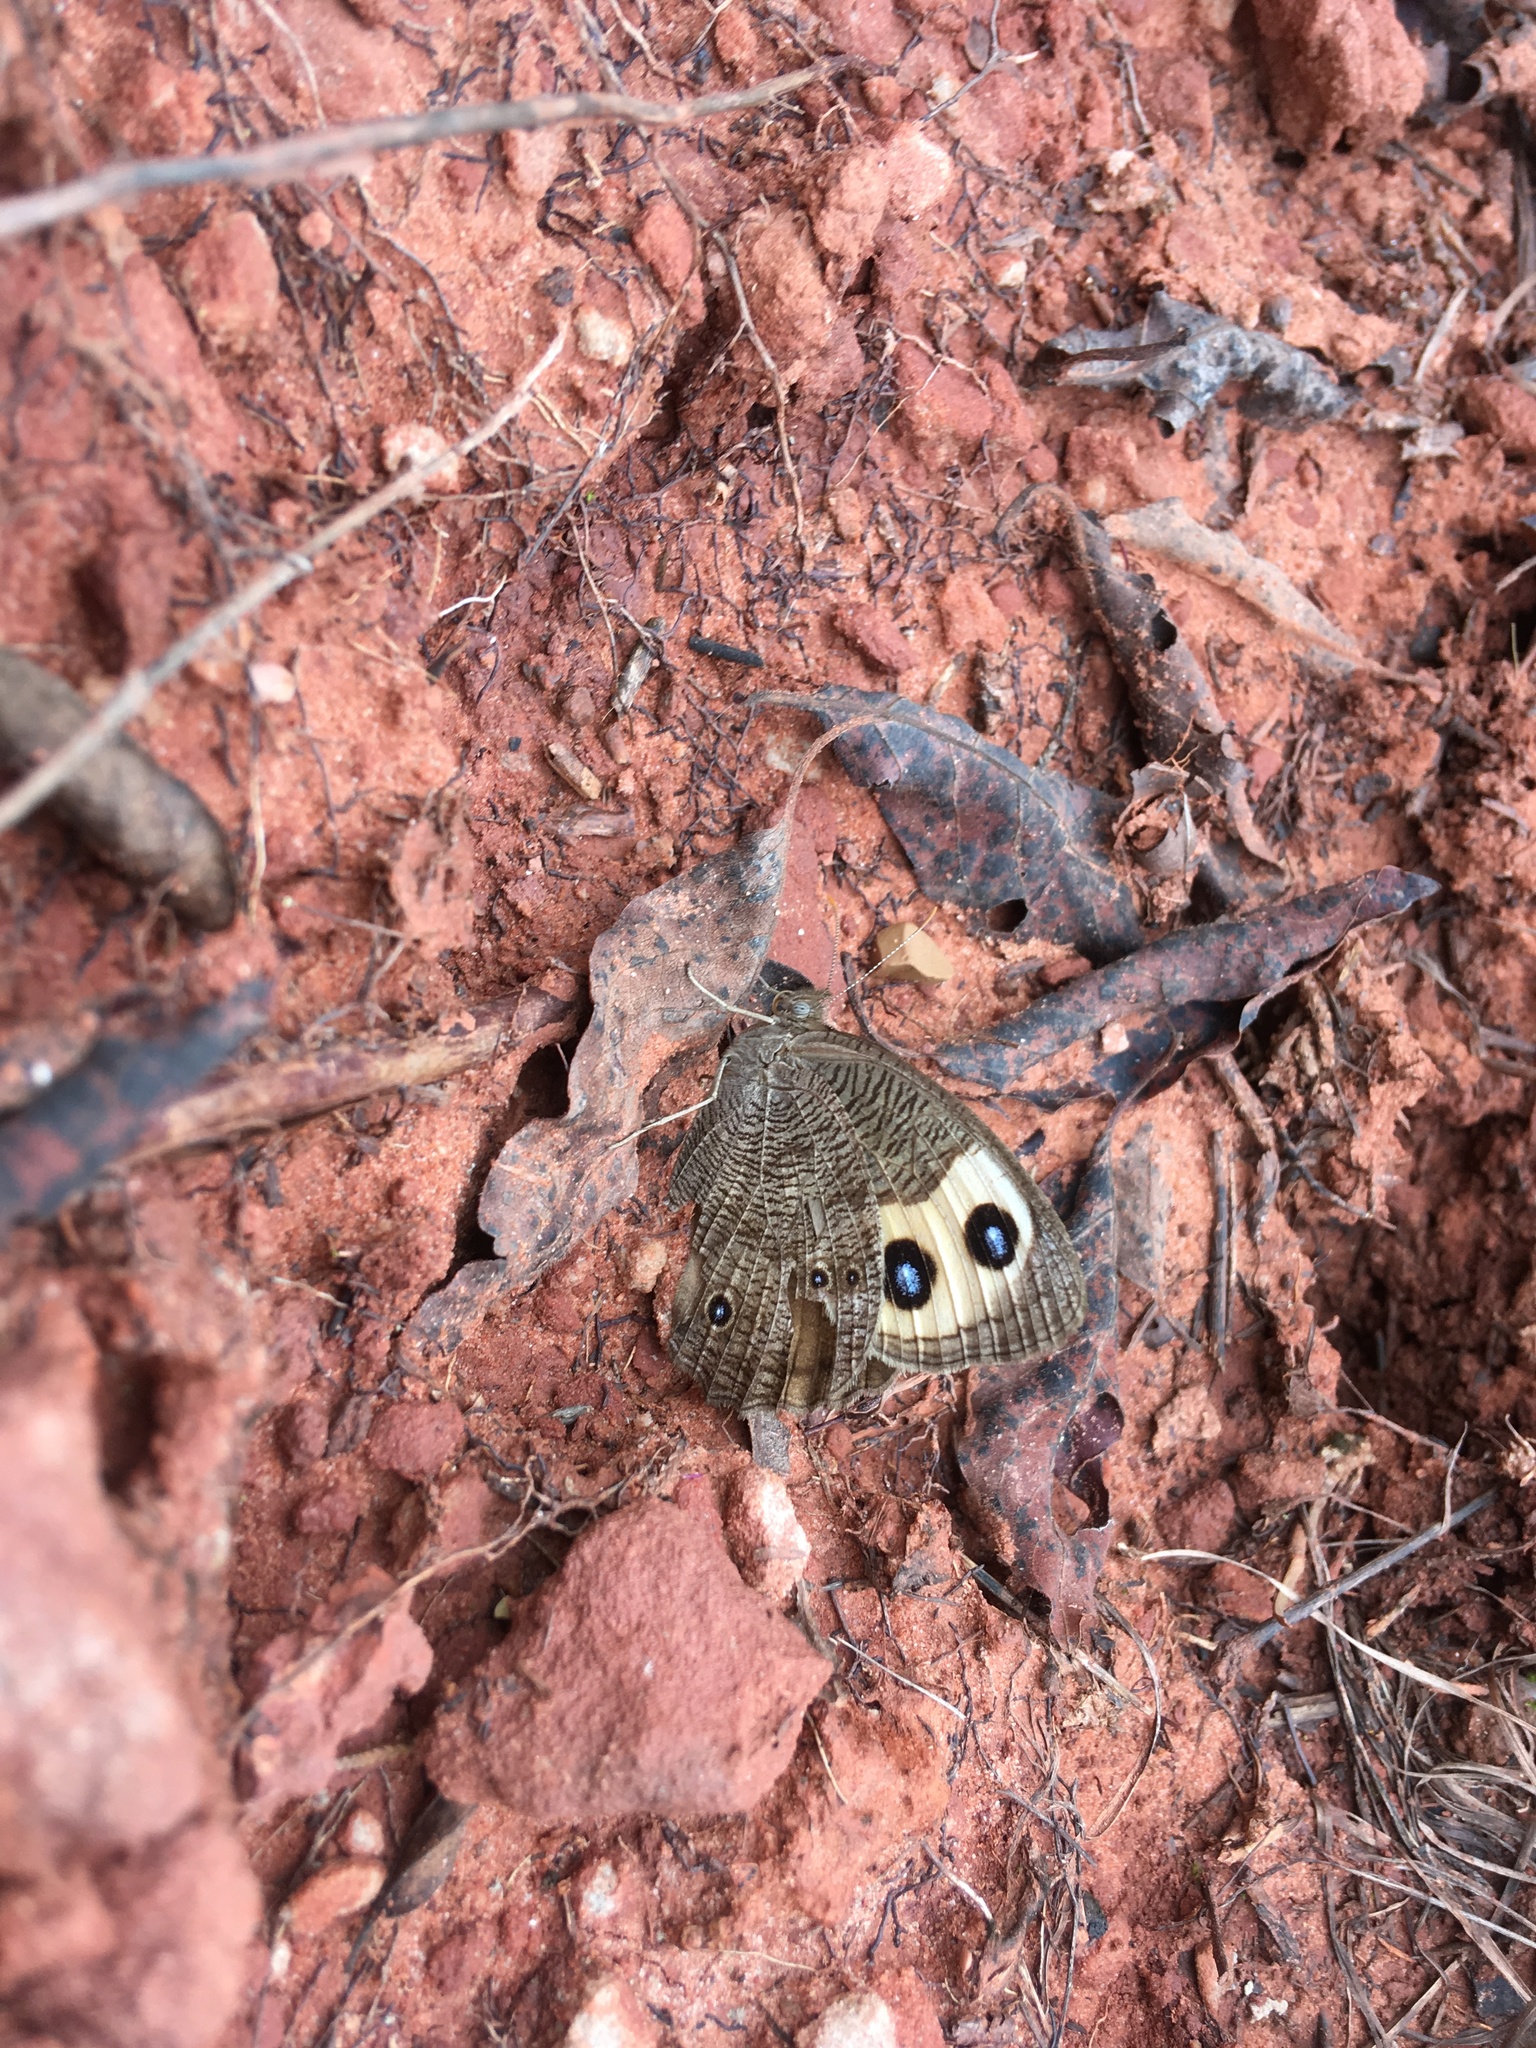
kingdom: Animalia
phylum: Arthropoda
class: Insecta
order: Lepidoptera
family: Nymphalidae
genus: Cercyonis
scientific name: Cercyonis pegala
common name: Common wood-nymph
